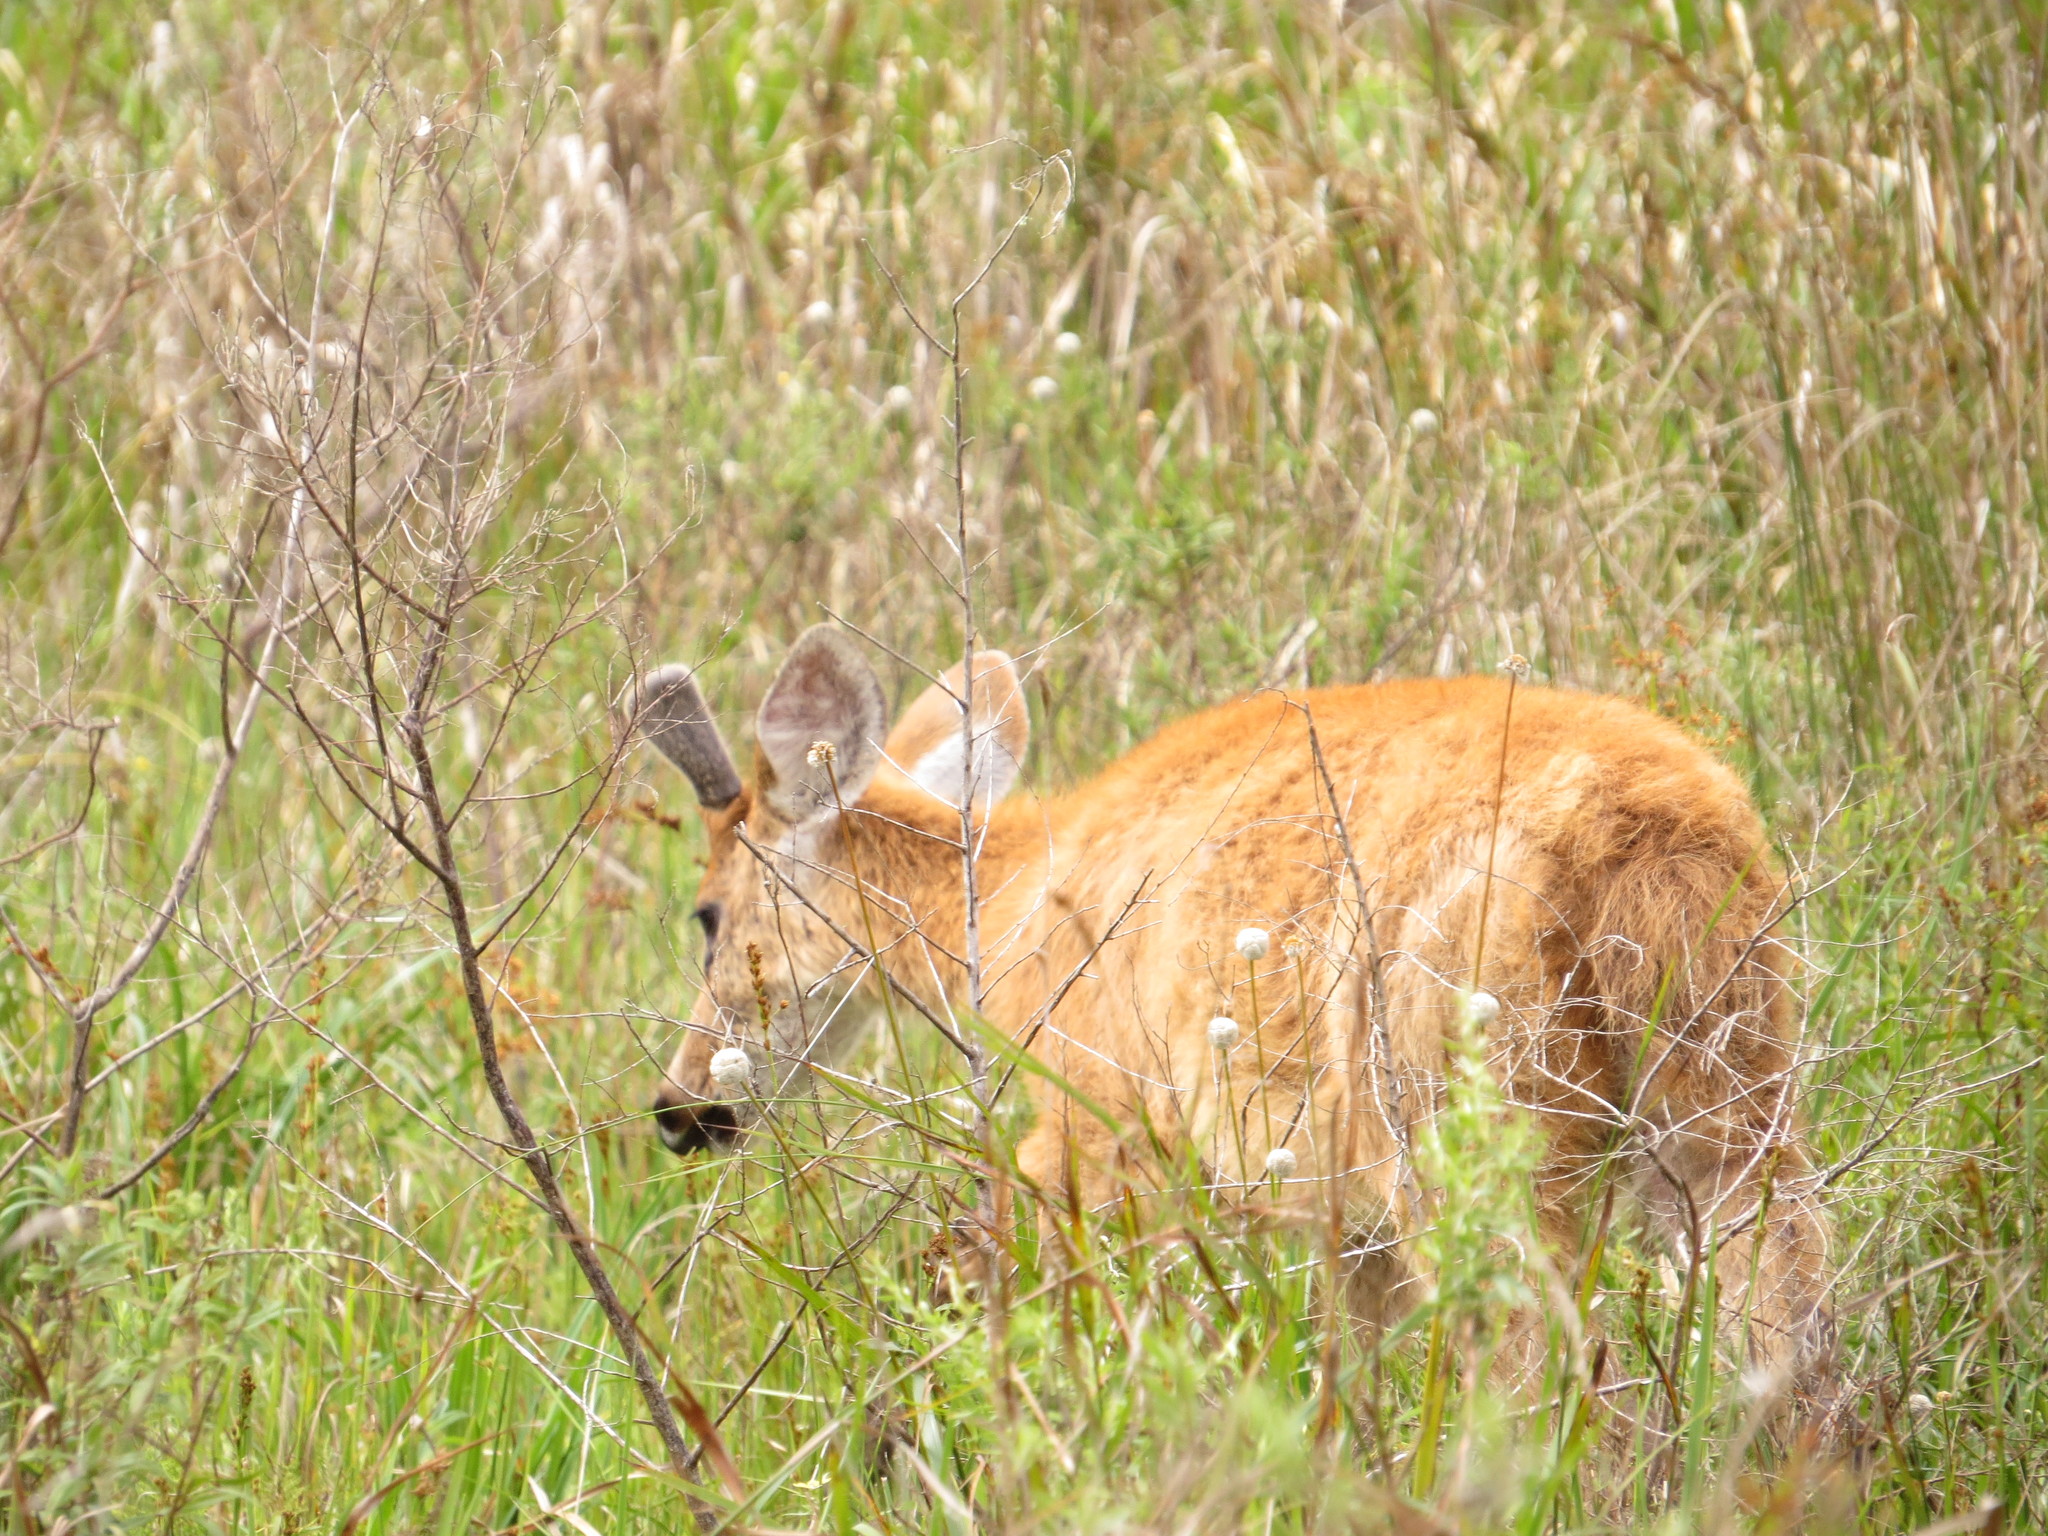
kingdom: Animalia
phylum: Chordata
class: Mammalia
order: Artiodactyla
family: Cervidae
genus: Blastocerus
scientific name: Blastocerus dichotomus
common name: Marsh deer
